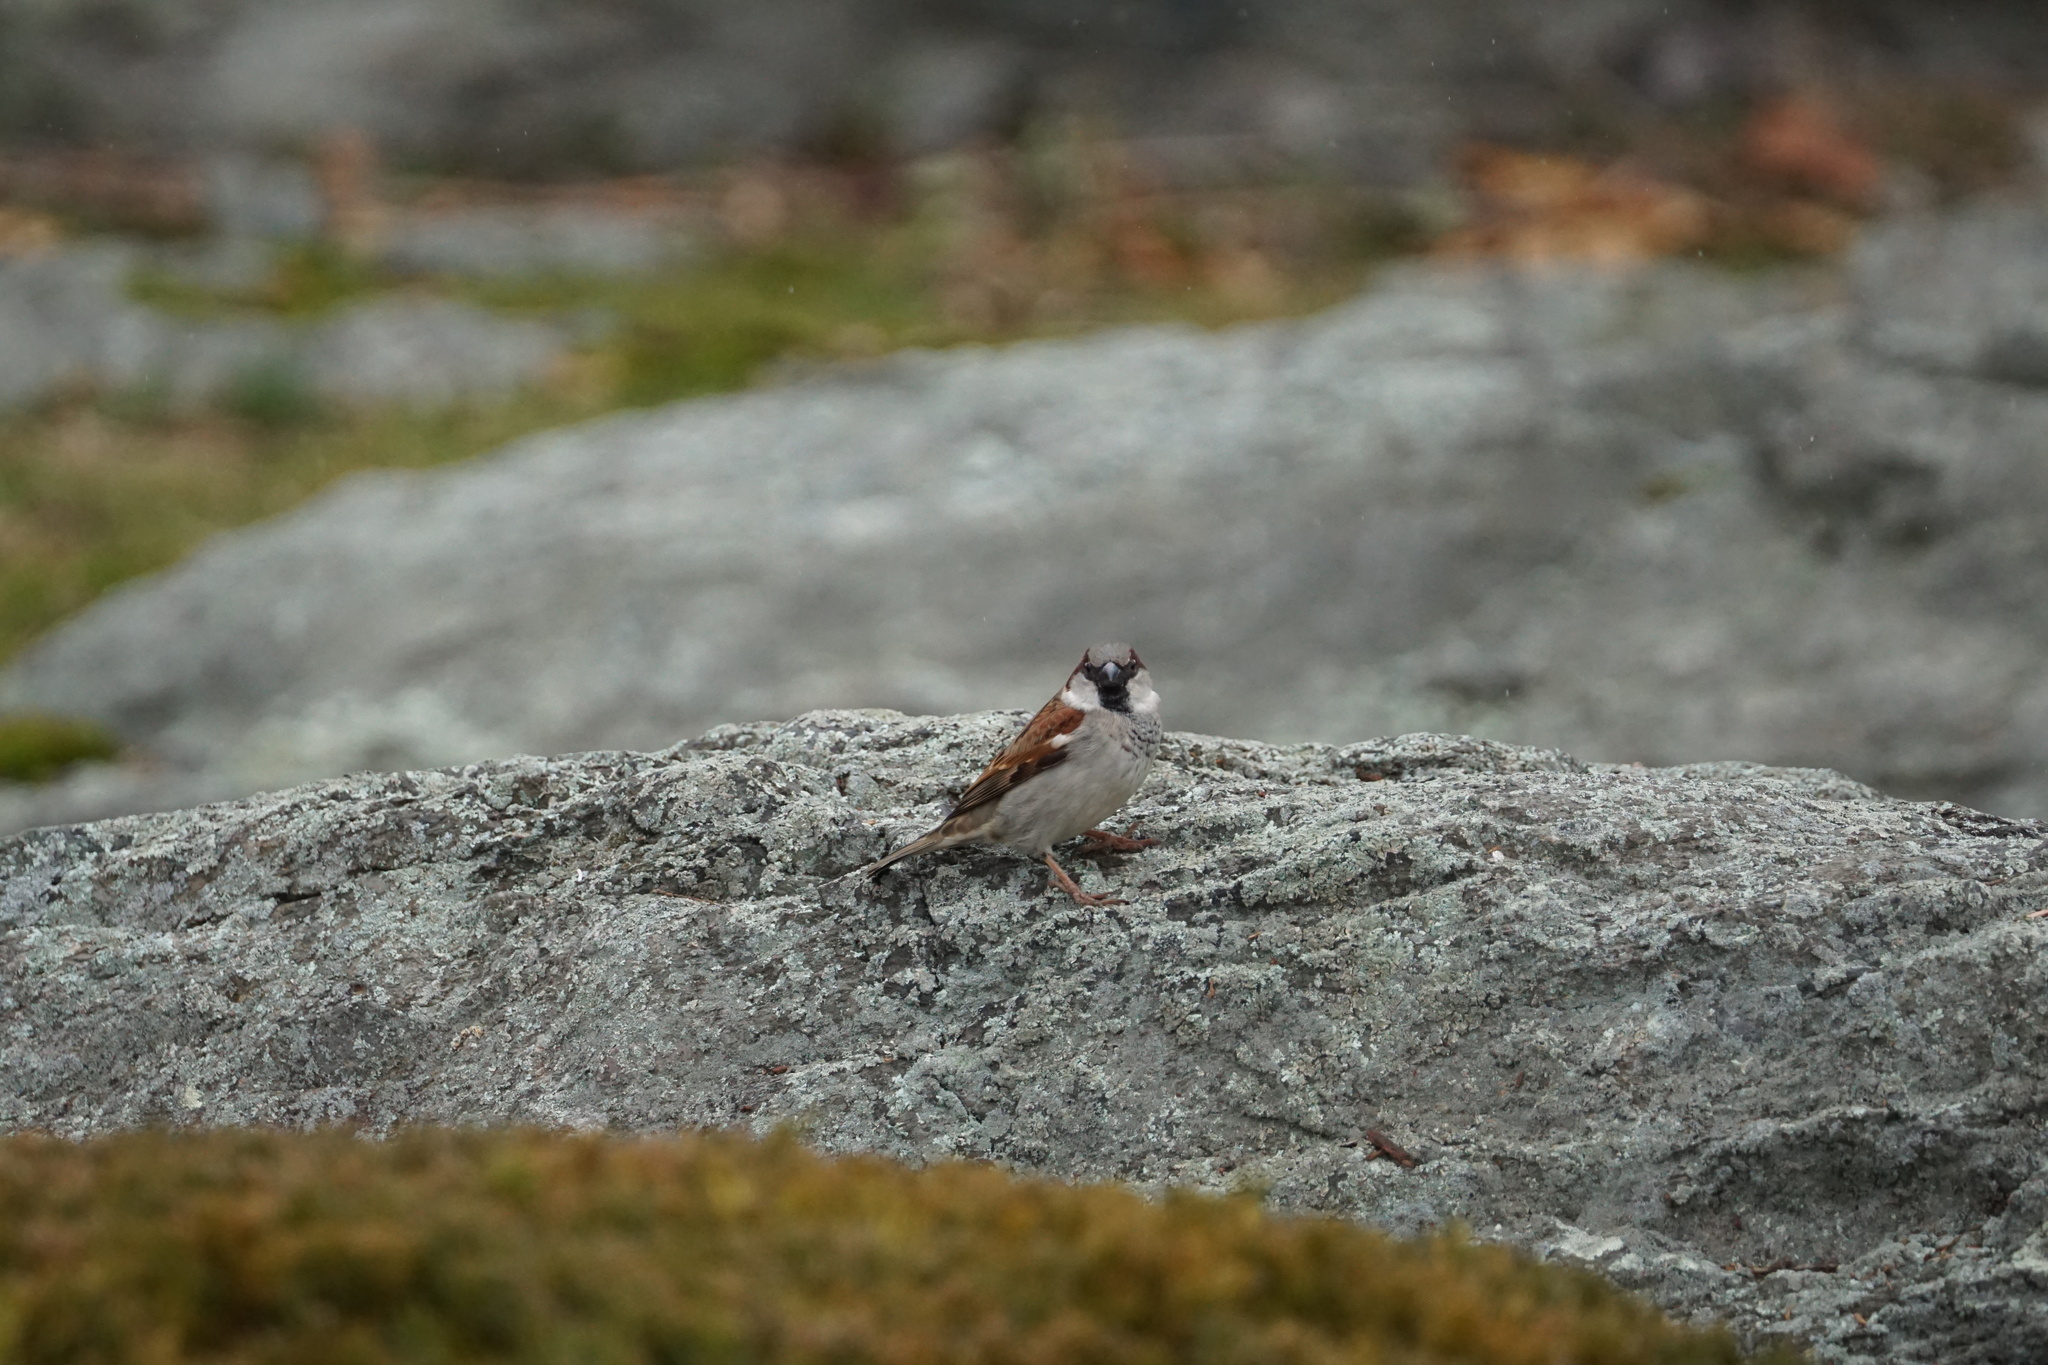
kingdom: Animalia
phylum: Chordata
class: Aves
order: Passeriformes
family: Passeridae
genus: Passer
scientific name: Passer domesticus
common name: House sparrow
